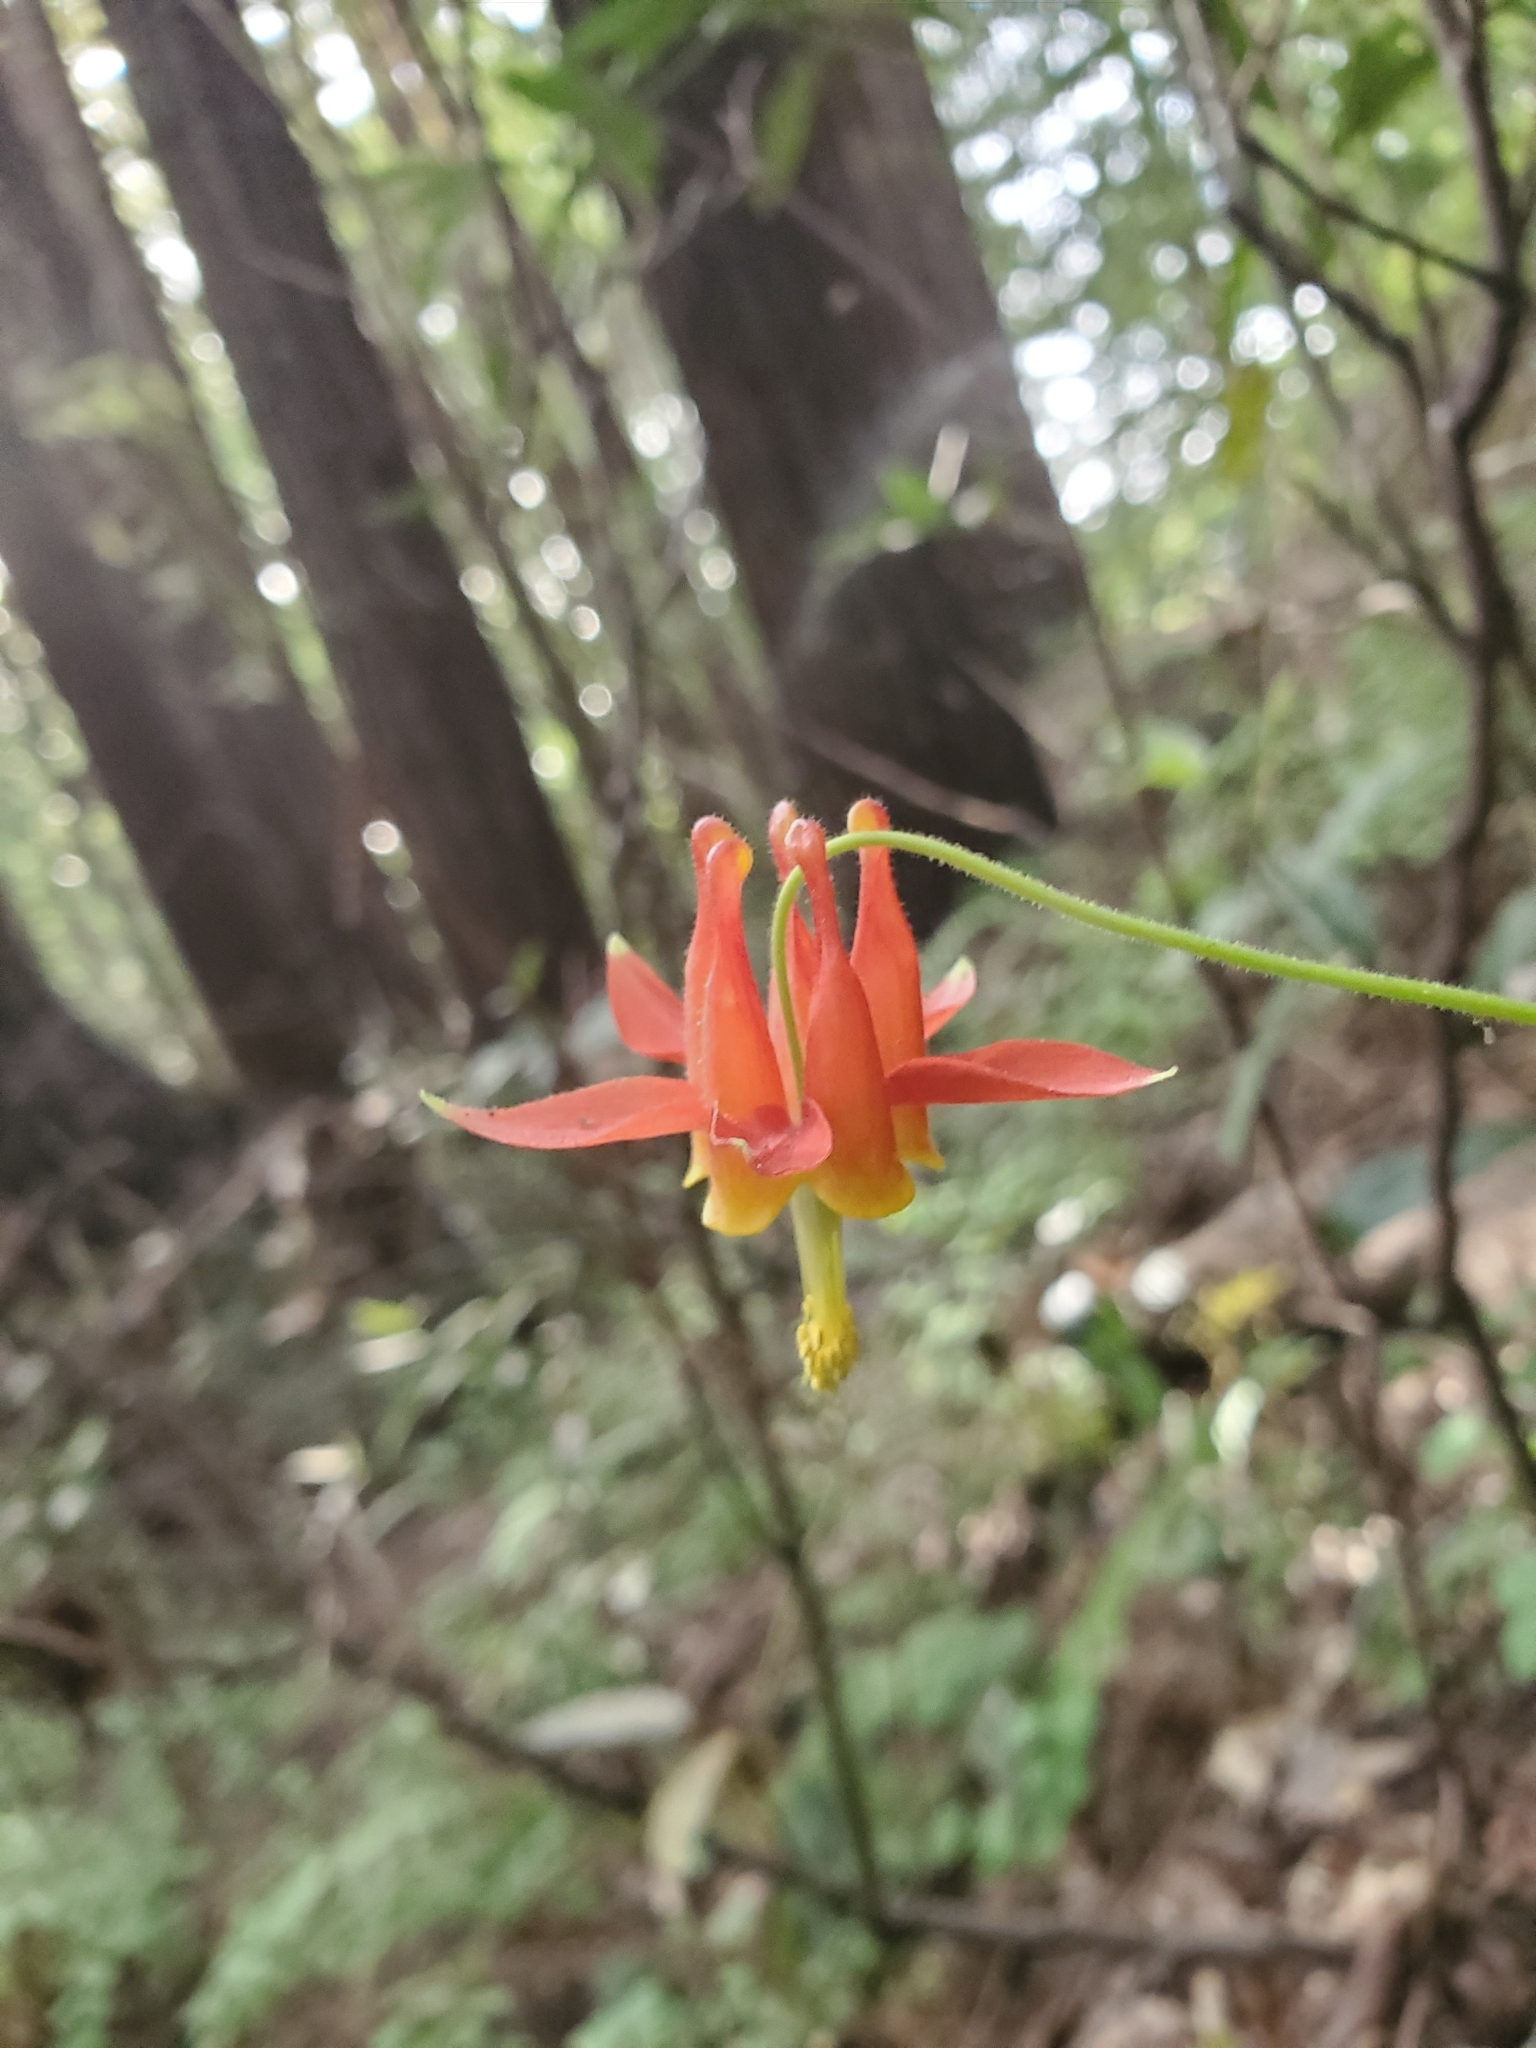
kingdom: Plantae
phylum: Tracheophyta
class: Magnoliopsida
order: Ranunculales
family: Ranunculaceae
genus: Aquilegia
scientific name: Aquilegia formosa
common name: Sitka columbine
